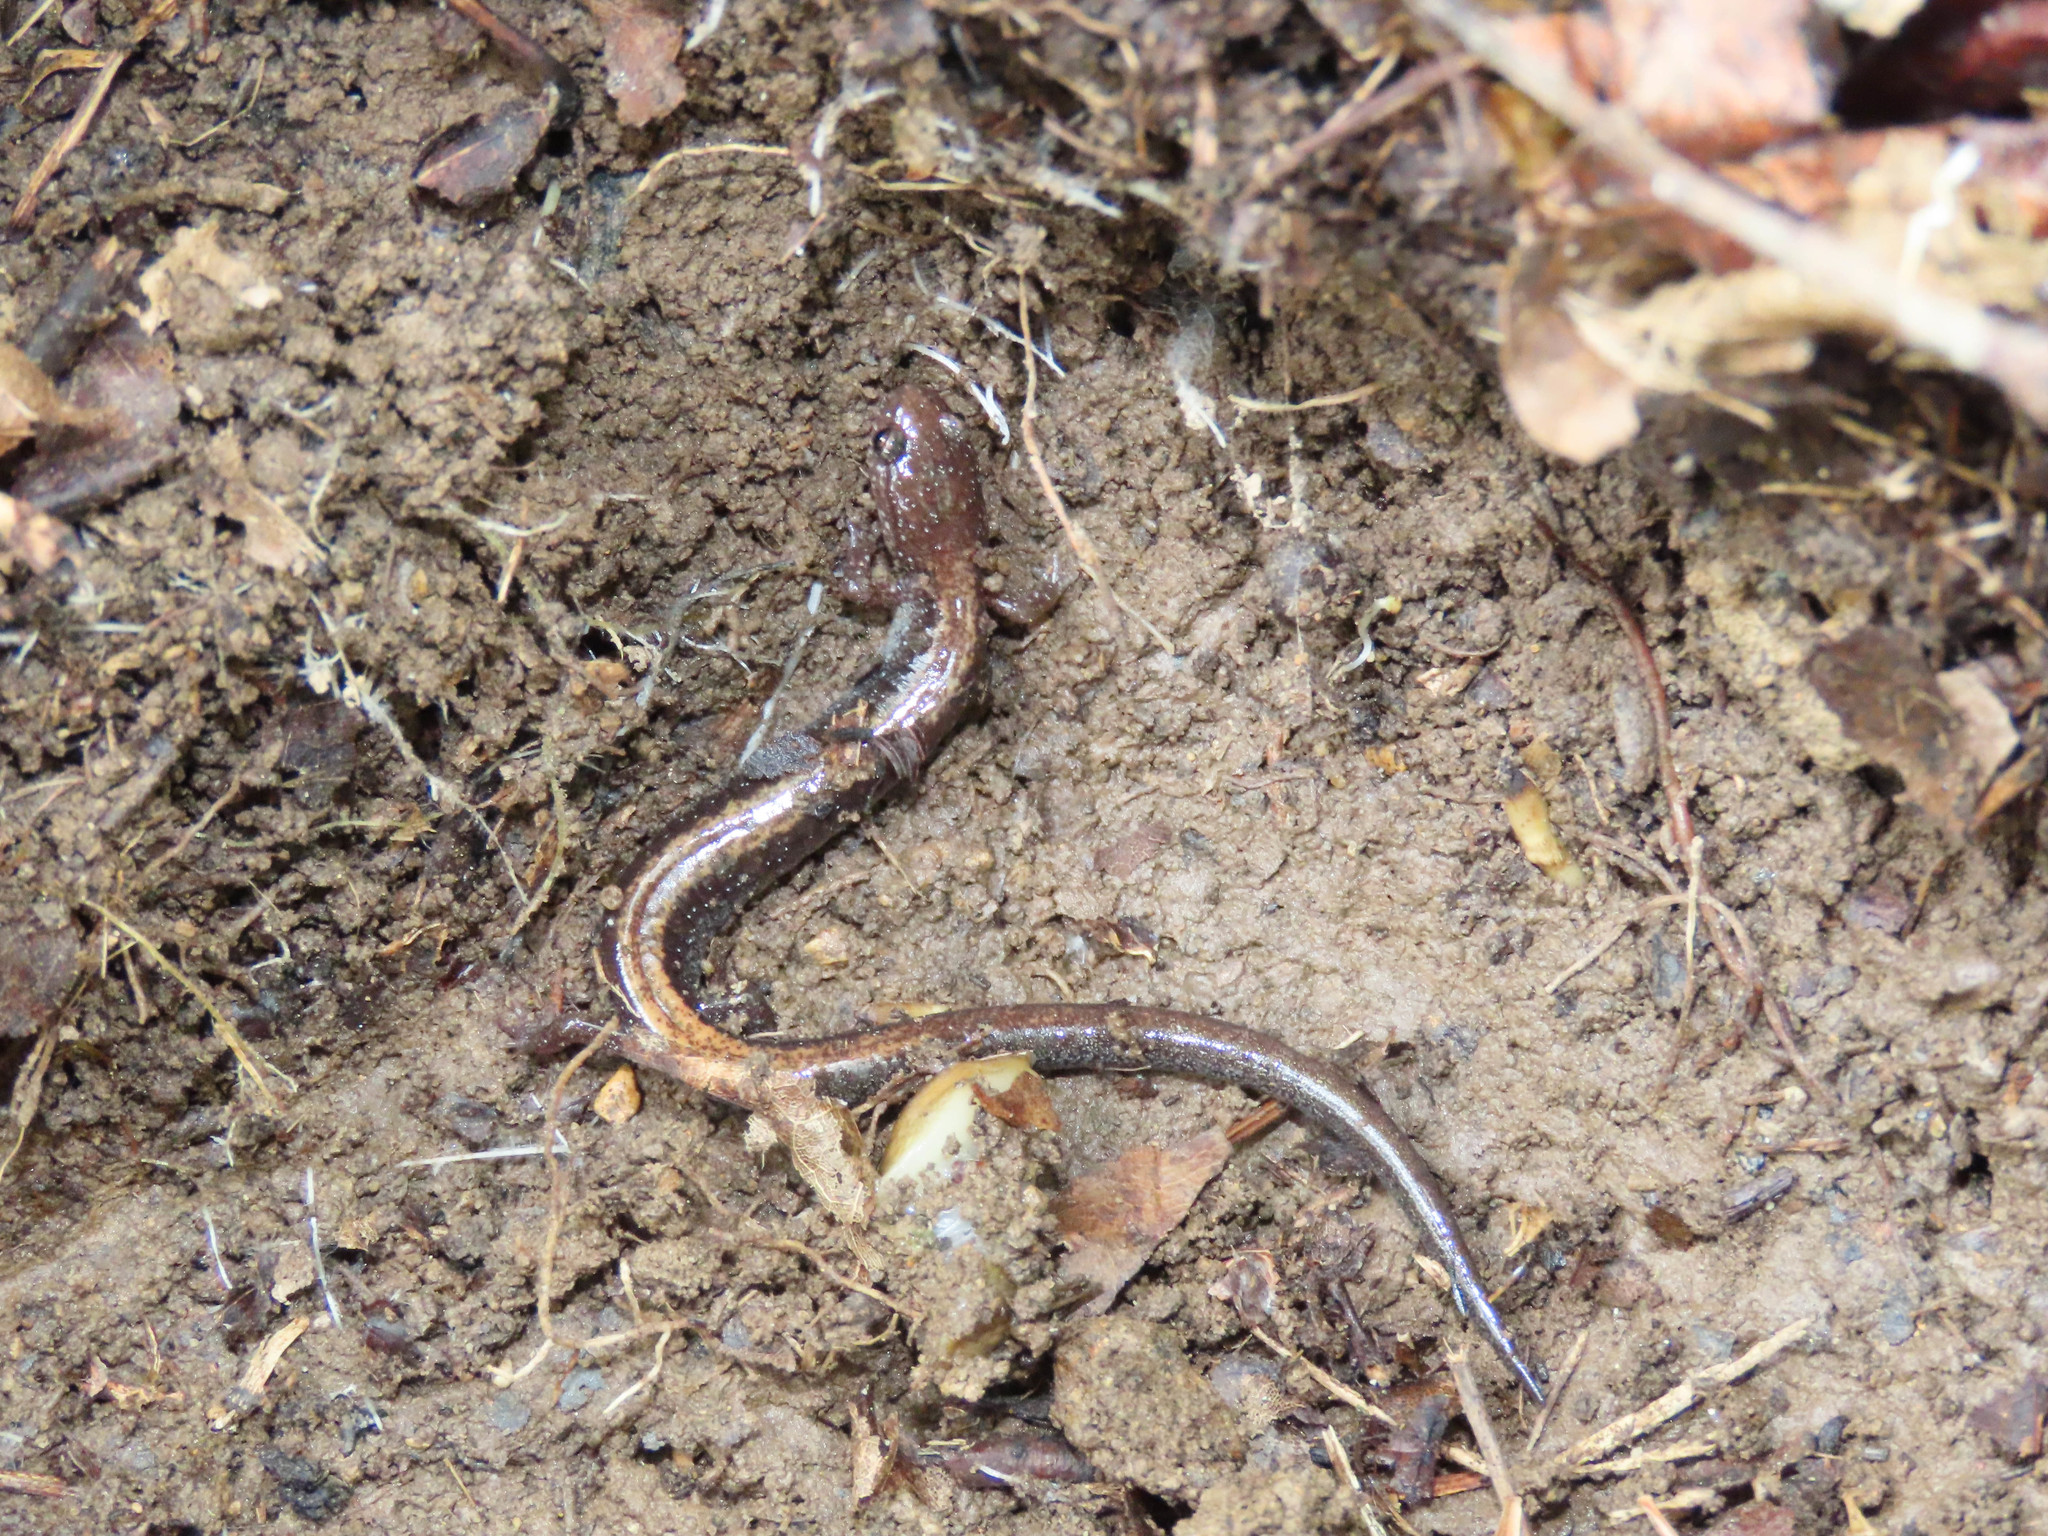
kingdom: Animalia
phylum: Chordata
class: Amphibia
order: Caudata
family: Plethodontidae
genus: Plethodon
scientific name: Plethodon cinereus
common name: Redback salamander
